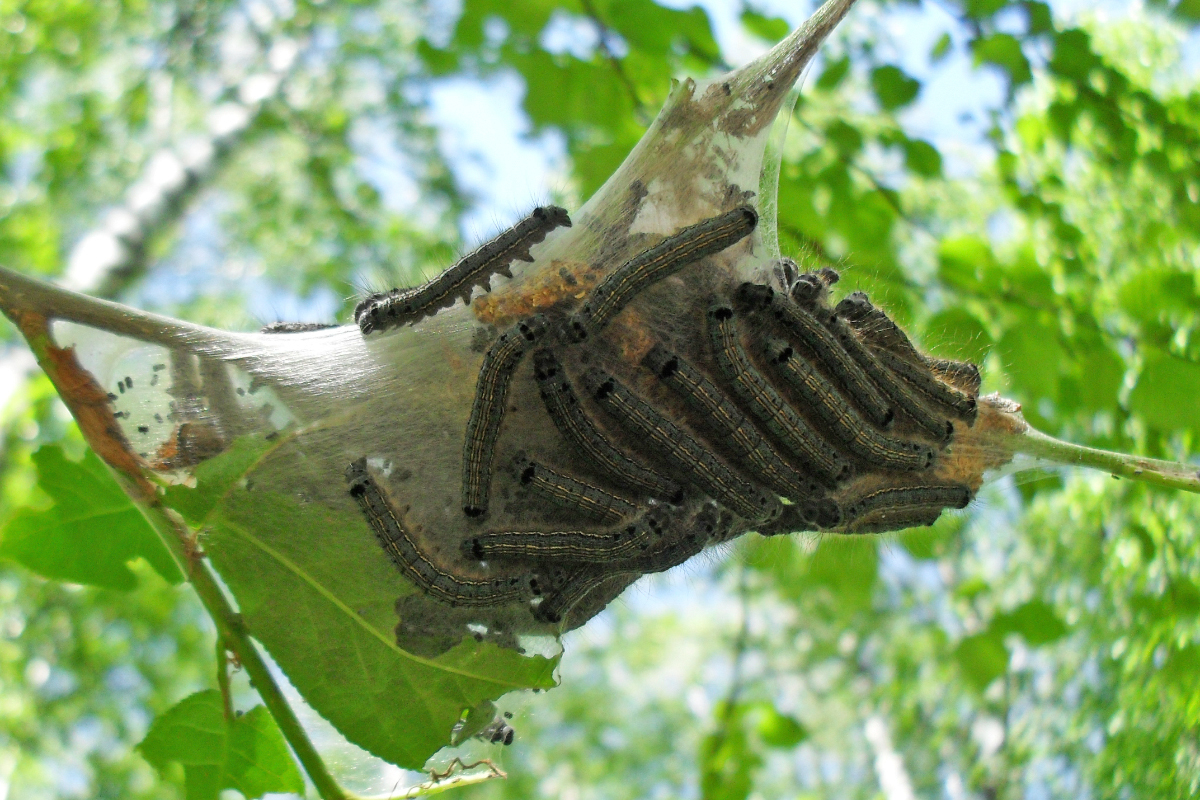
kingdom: Animalia
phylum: Arthropoda
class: Insecta
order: Lepidoptera
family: Lasiocampidae
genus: Malacosoma
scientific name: Malacosoma neustria
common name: The lackey
